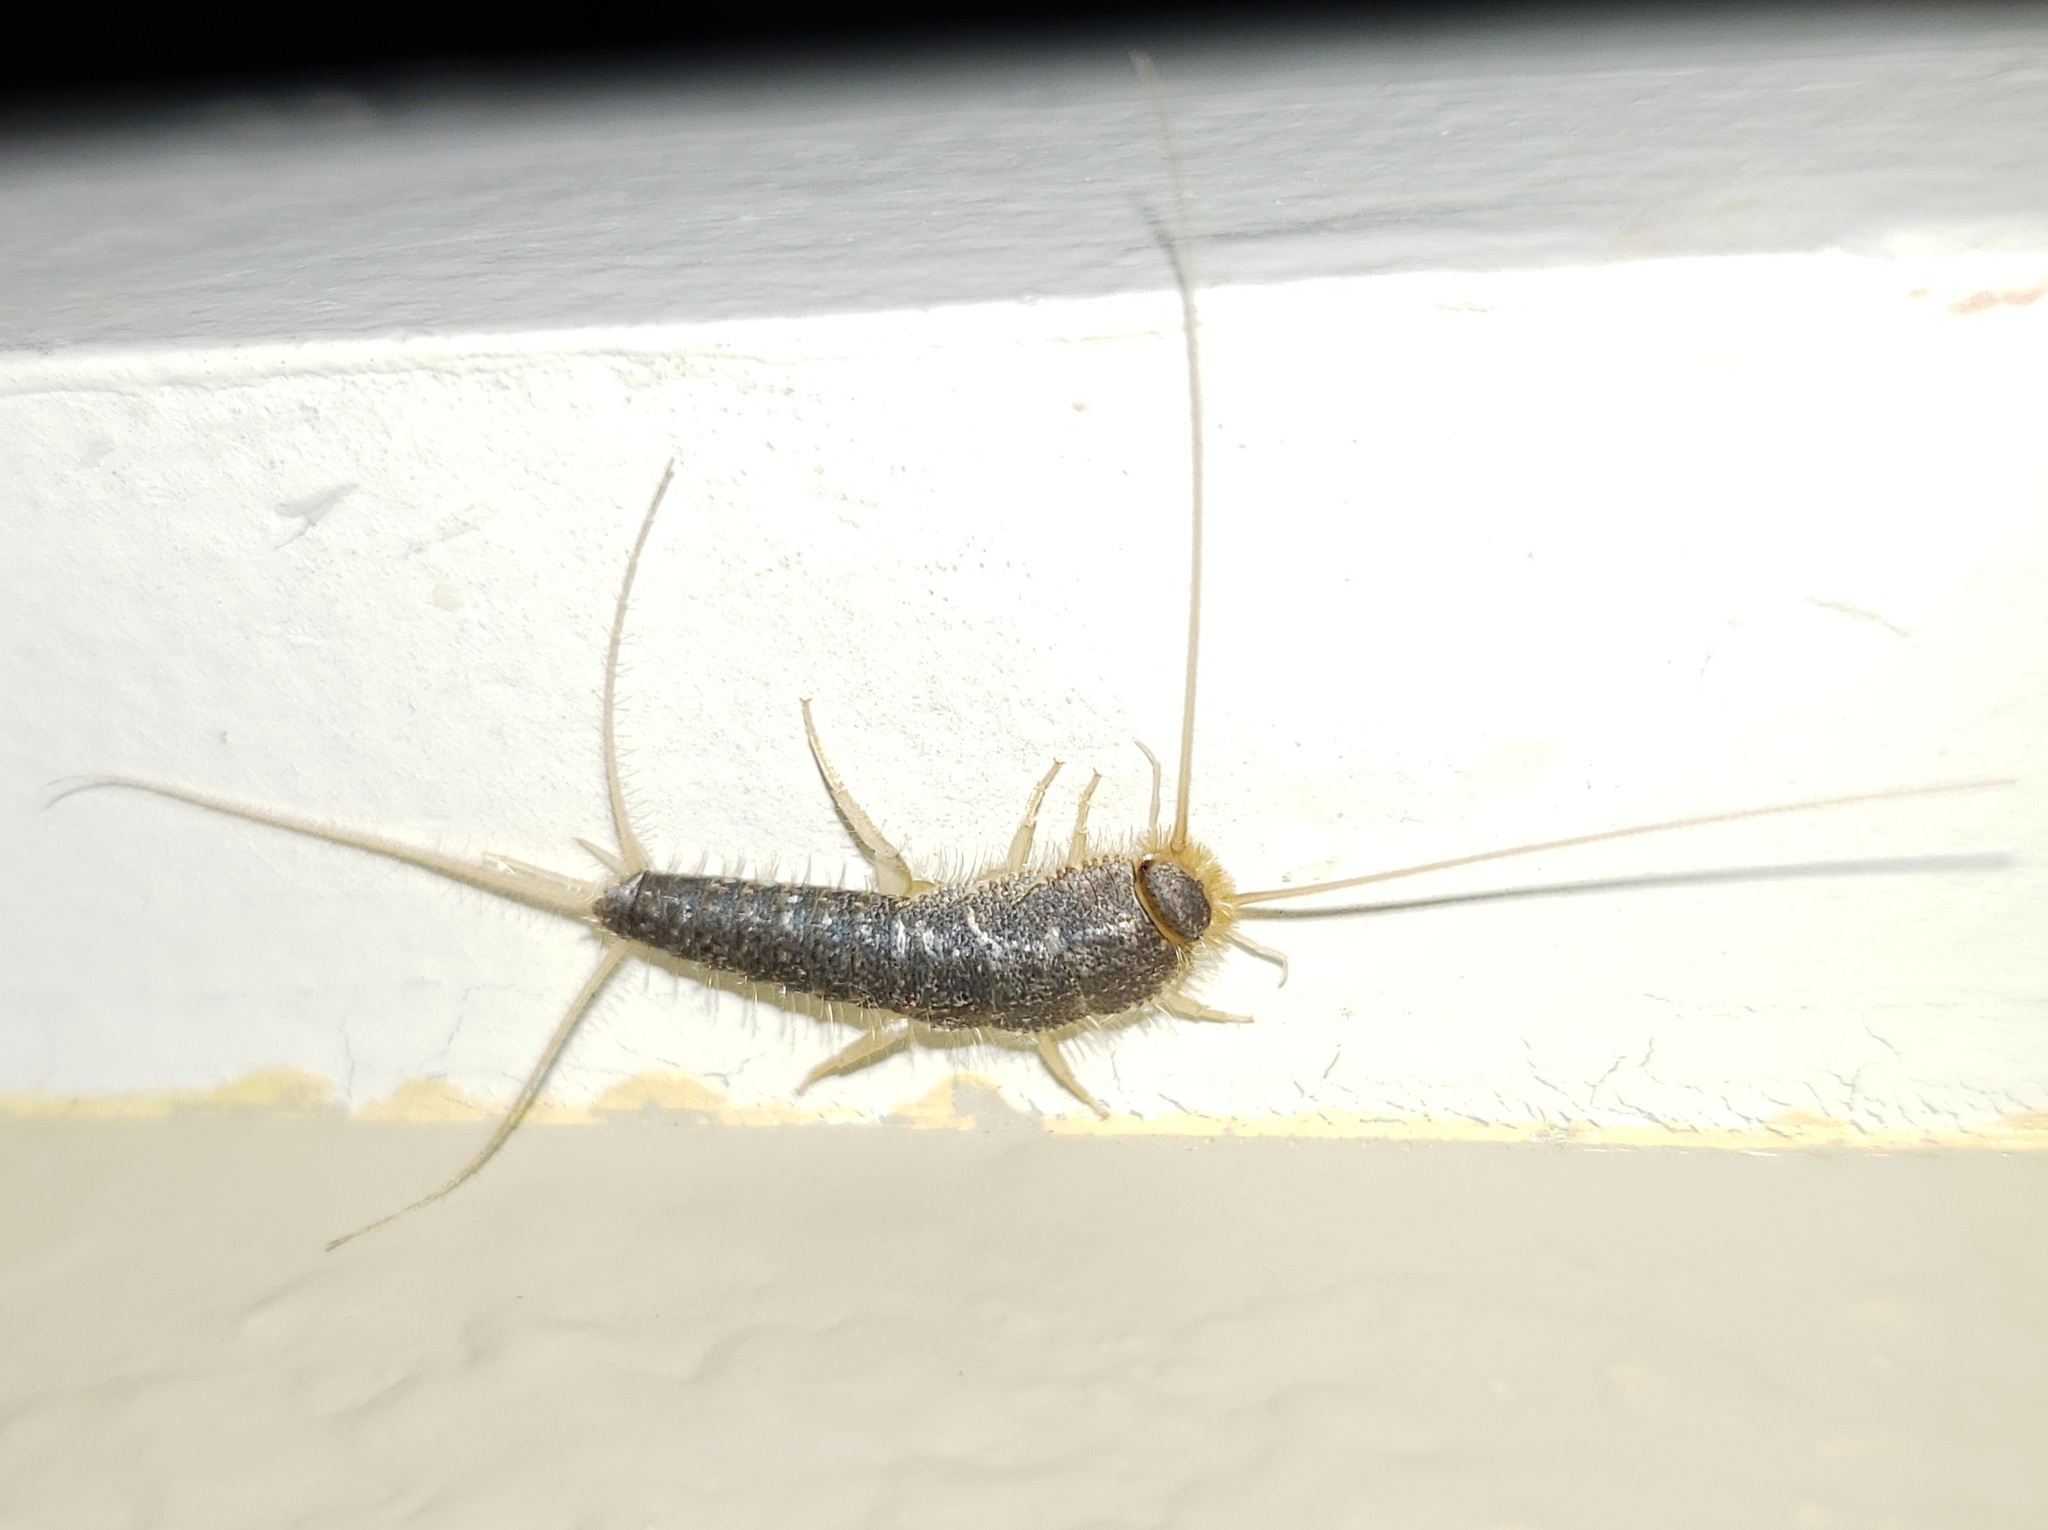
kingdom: Animalia
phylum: Arthropoda
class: Insecta
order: Zygentoma
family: Lepismatidae
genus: Ctenolepisma
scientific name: Ctenolepisma longicaudatum
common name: Silverfish
